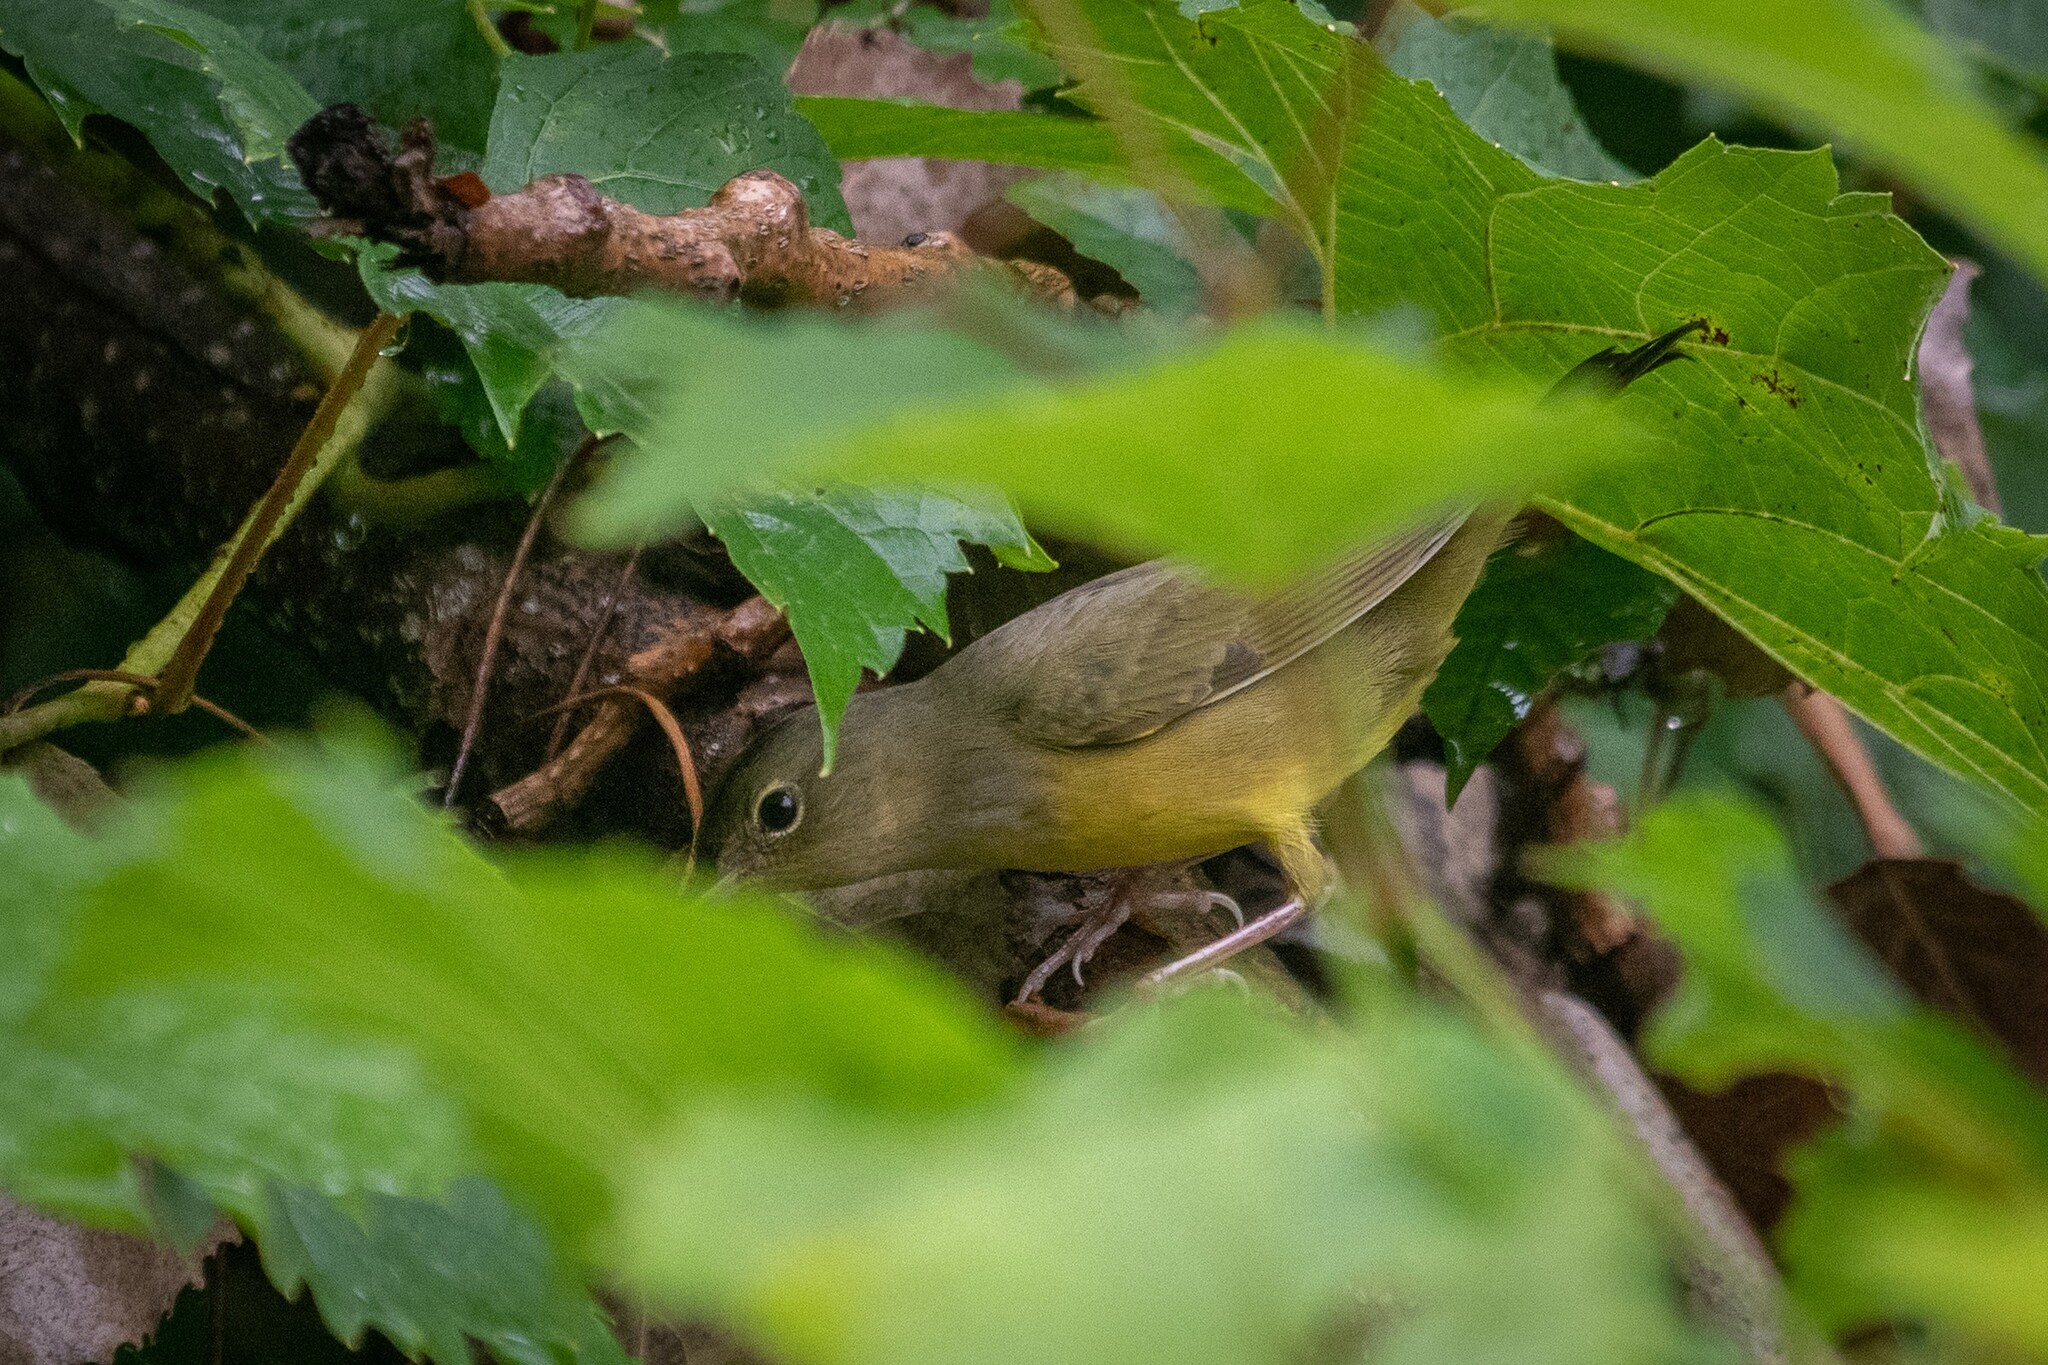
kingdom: Animalia
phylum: Chordata
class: Aves
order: Passeriformes
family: Parulidae
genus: Geothlypis
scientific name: Geothlypis philadelphia
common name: Mourning warbler
